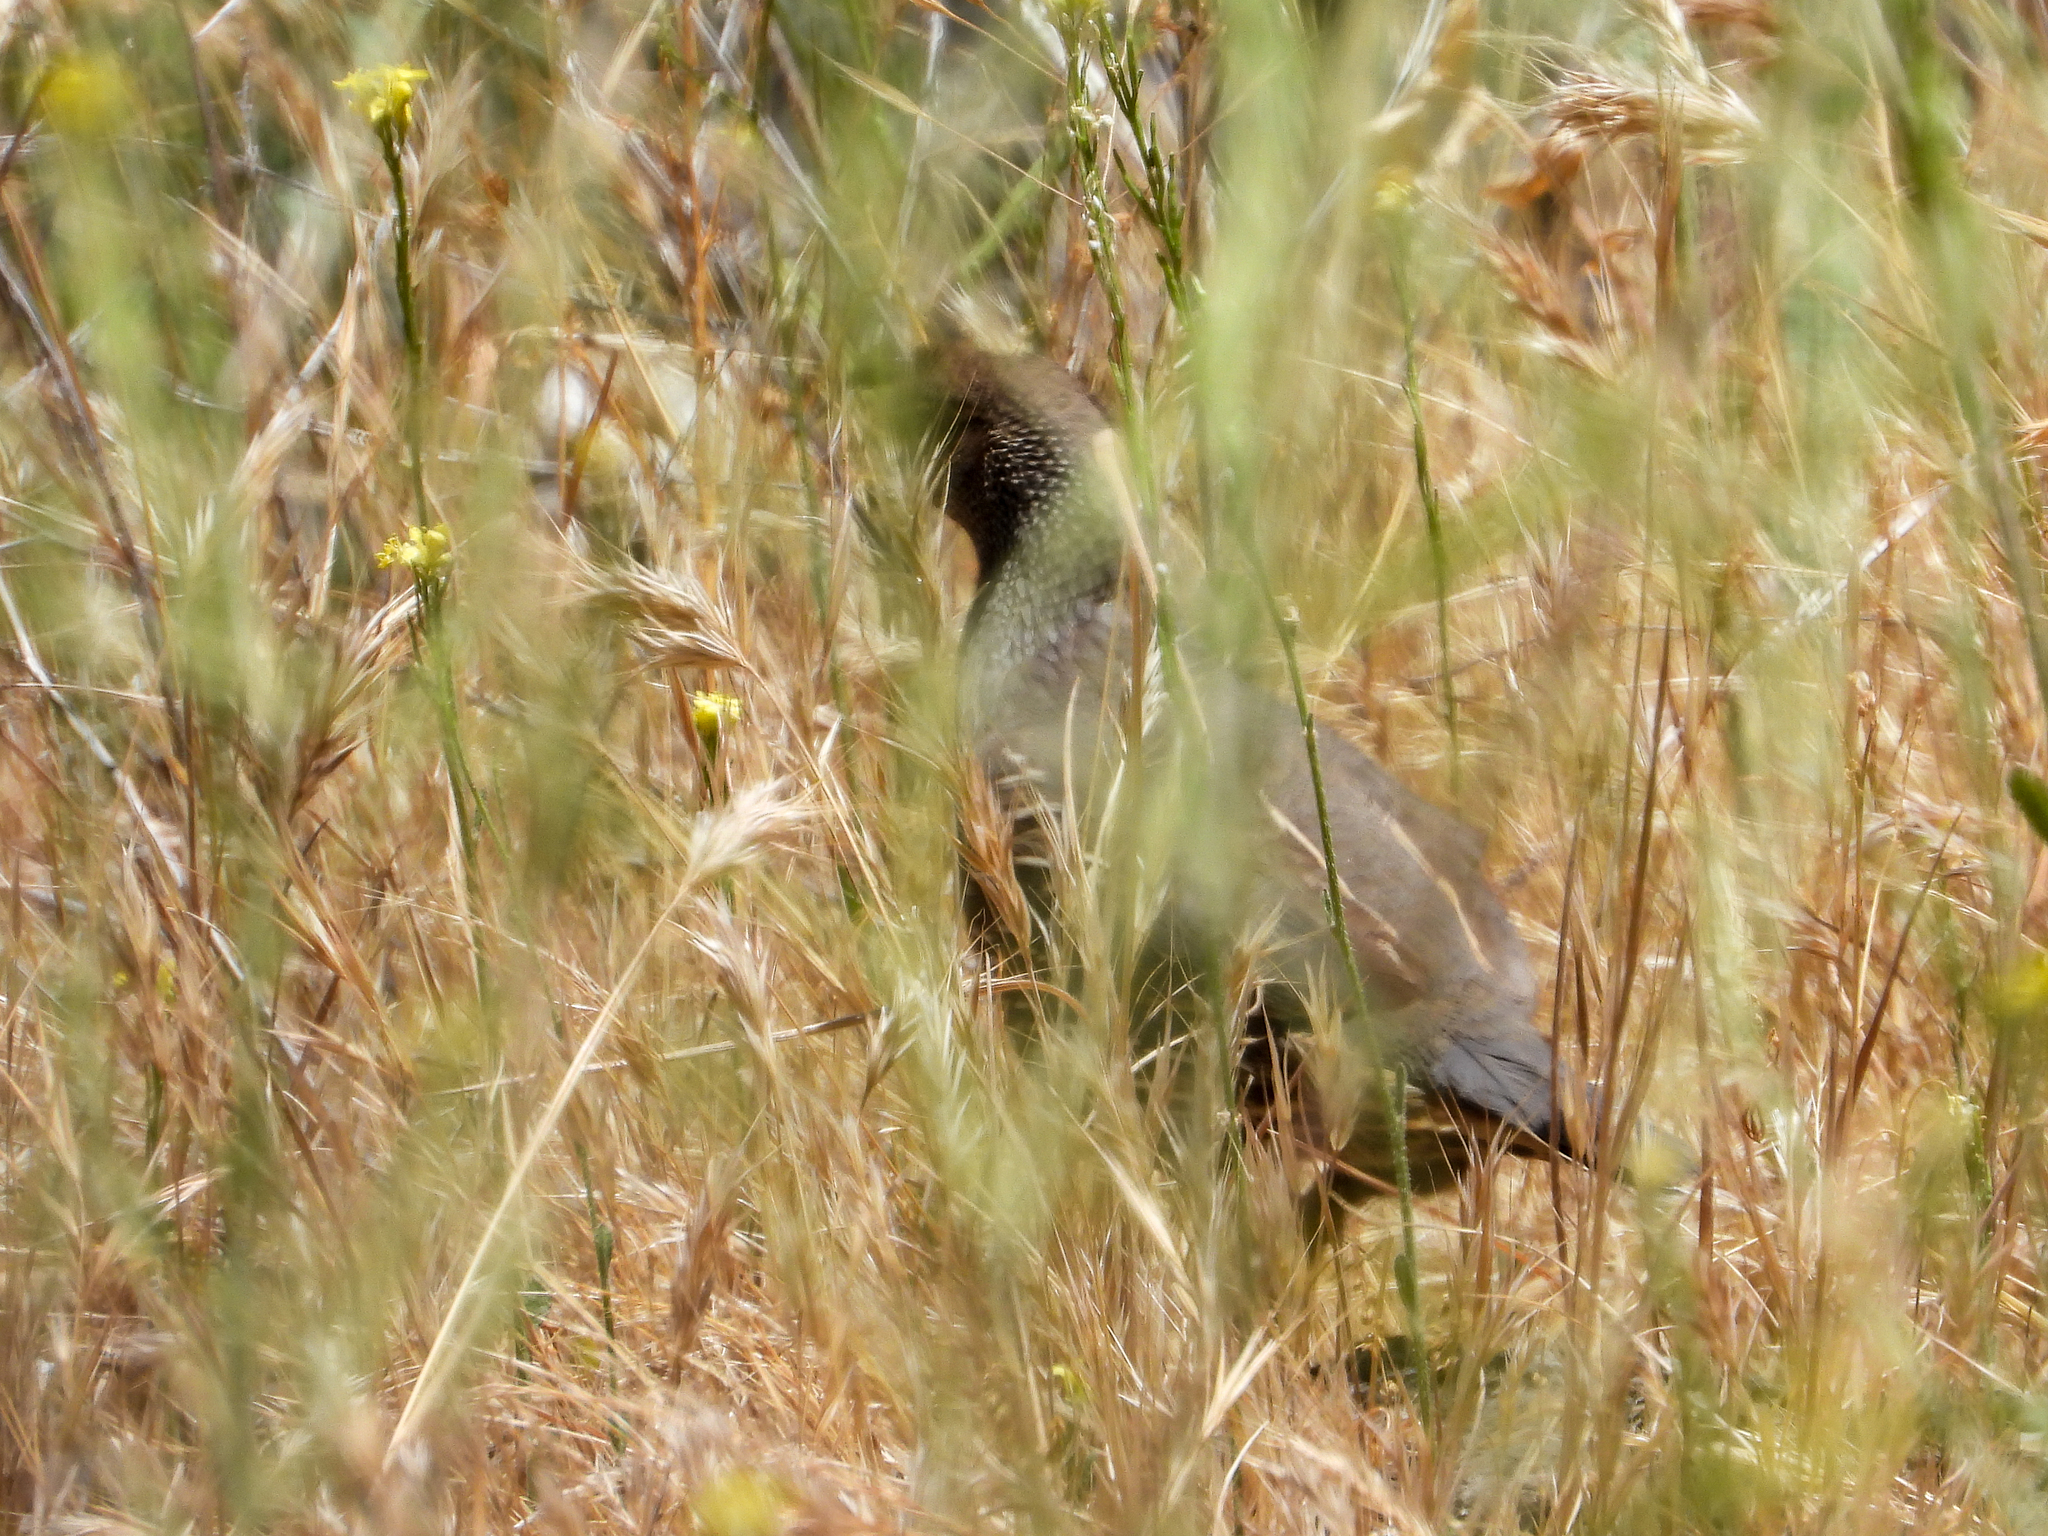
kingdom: Animalia
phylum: Chordata
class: Aves
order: Galliformes
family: Odontophoridae
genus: Callipepla
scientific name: Callipepla californica
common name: California quail
